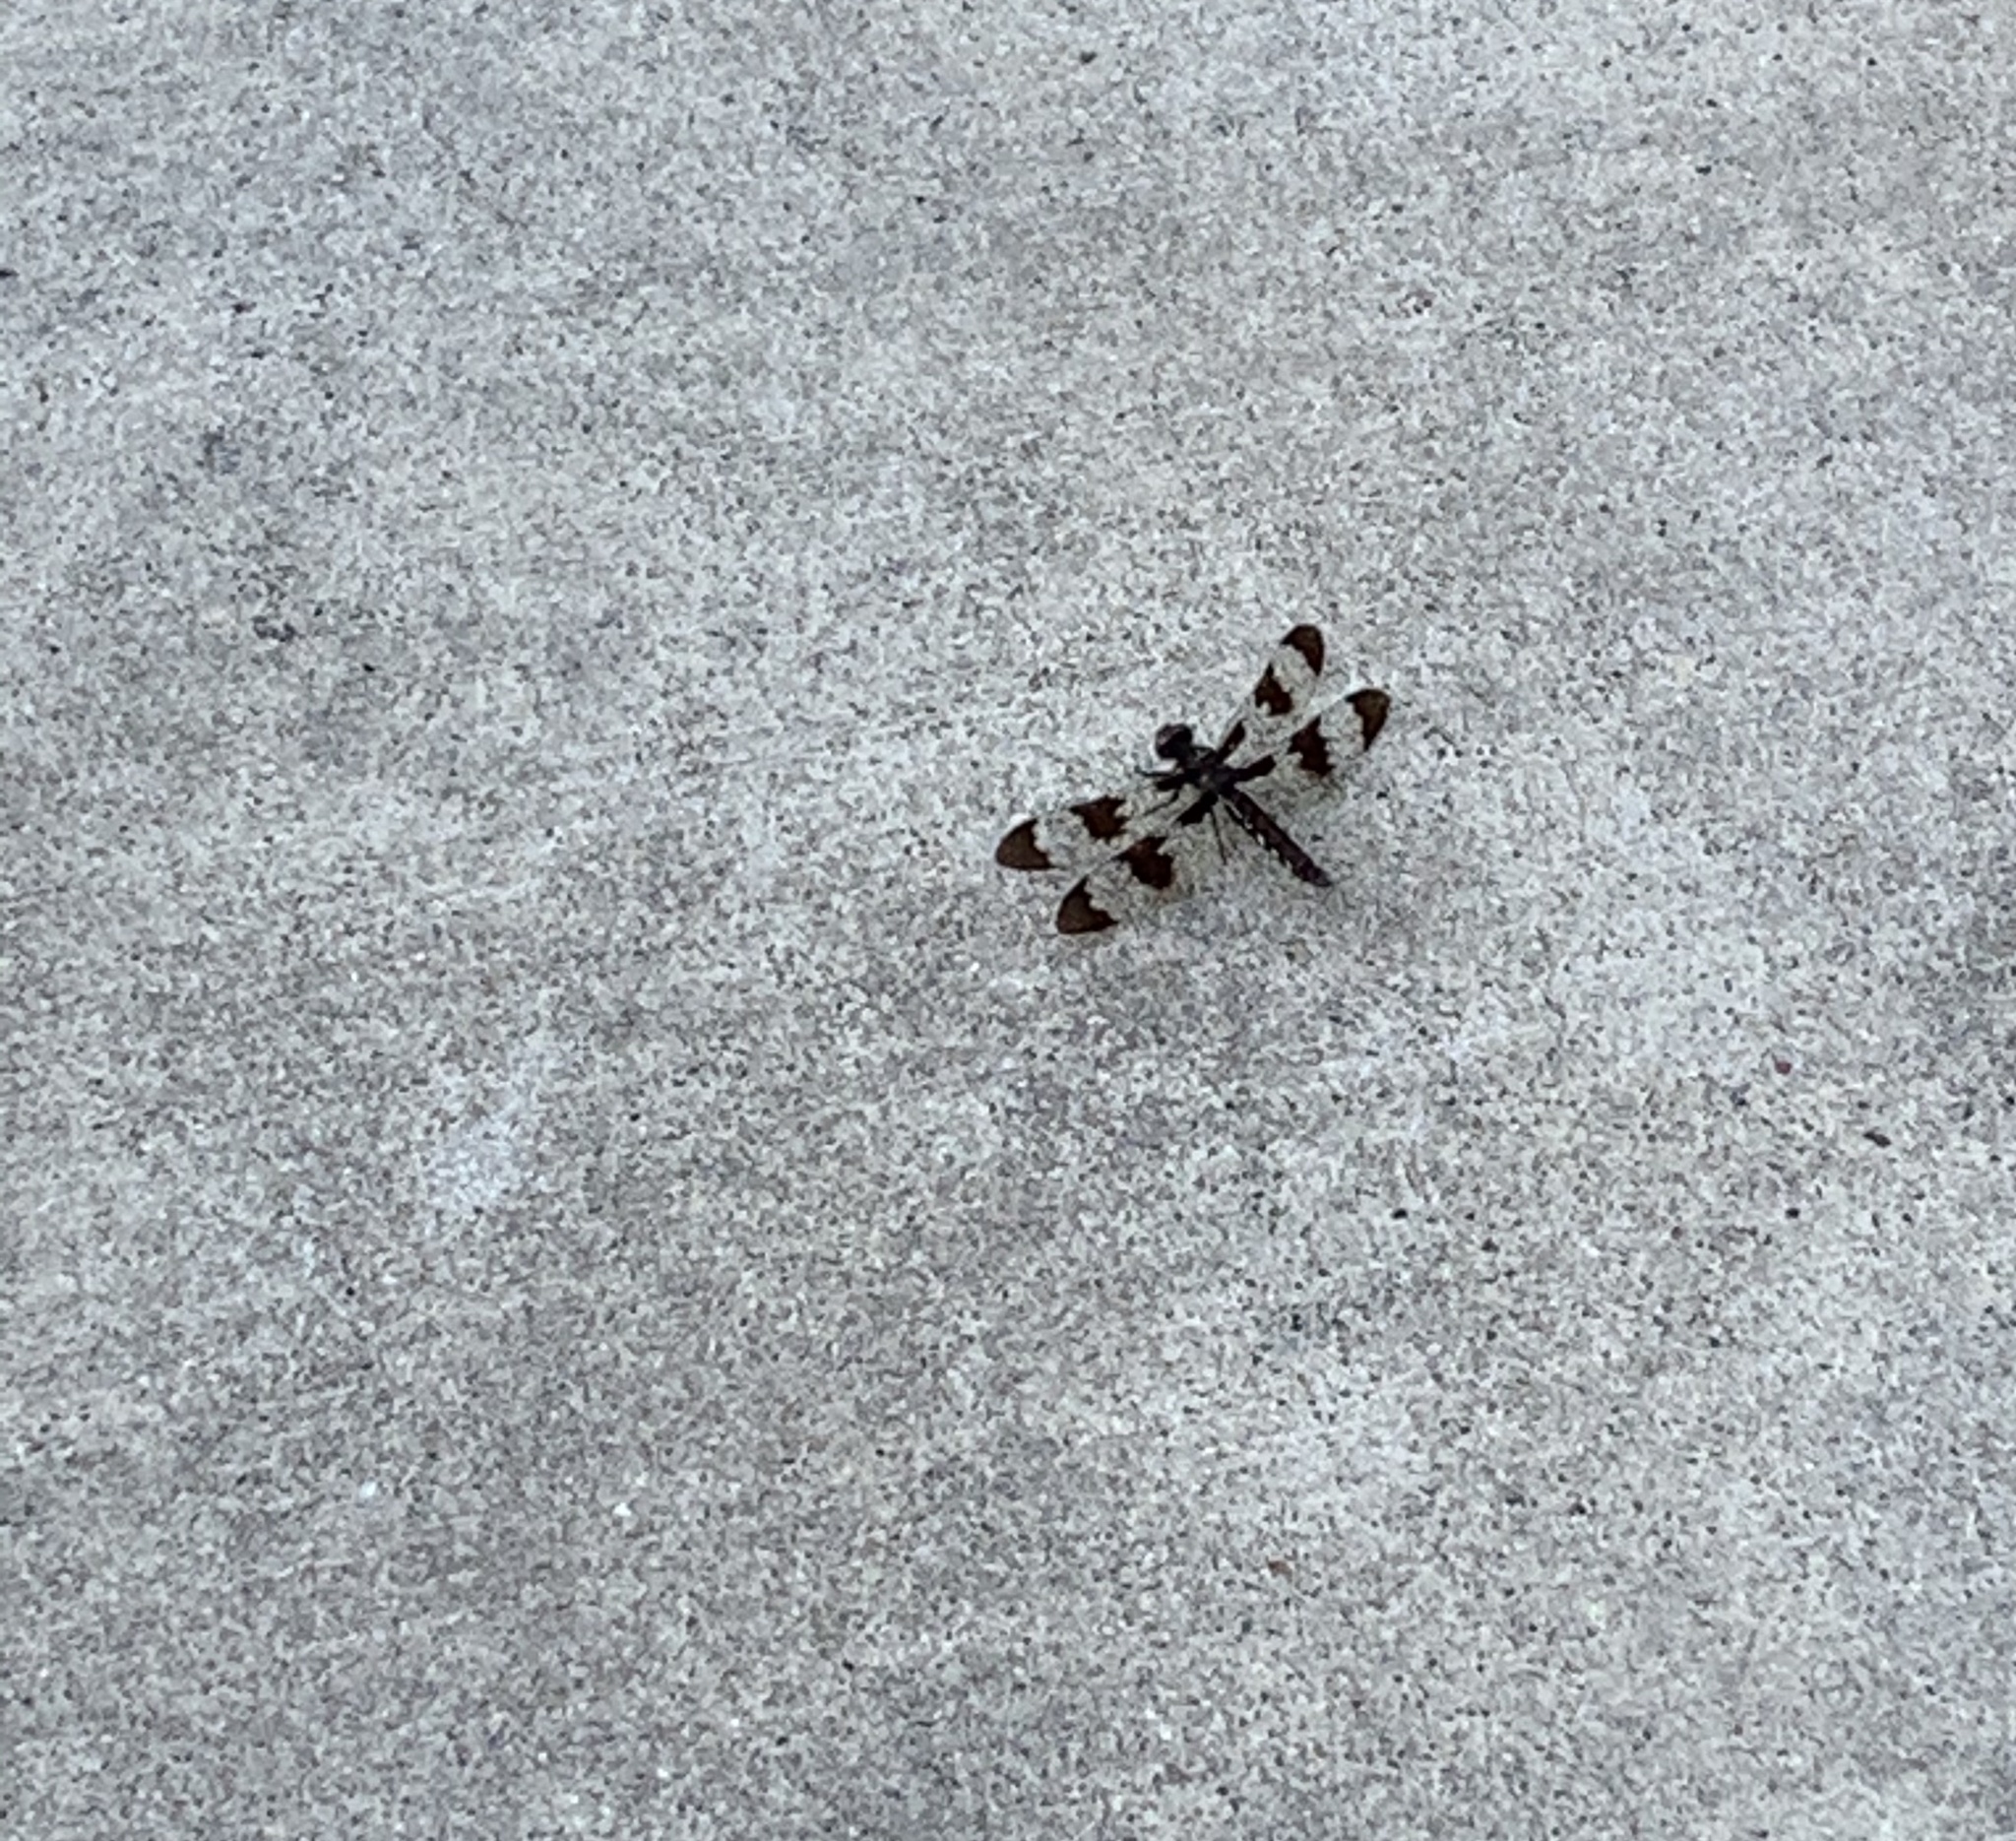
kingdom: Animalia
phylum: Arthropoda
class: Insecta
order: Odonata
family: Libellulidae
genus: Plathemis
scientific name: Plathemis lydia
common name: Common whitetail
